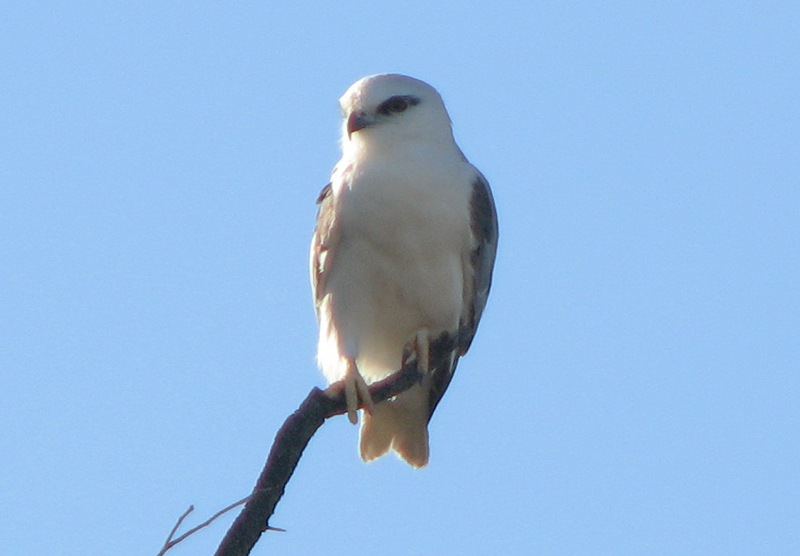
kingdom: Animalia
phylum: Chordata
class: Aves
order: Accipitriformes
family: Accipitridae
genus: Elanus
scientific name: Elanus axillaris
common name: Black-shouldered kite
